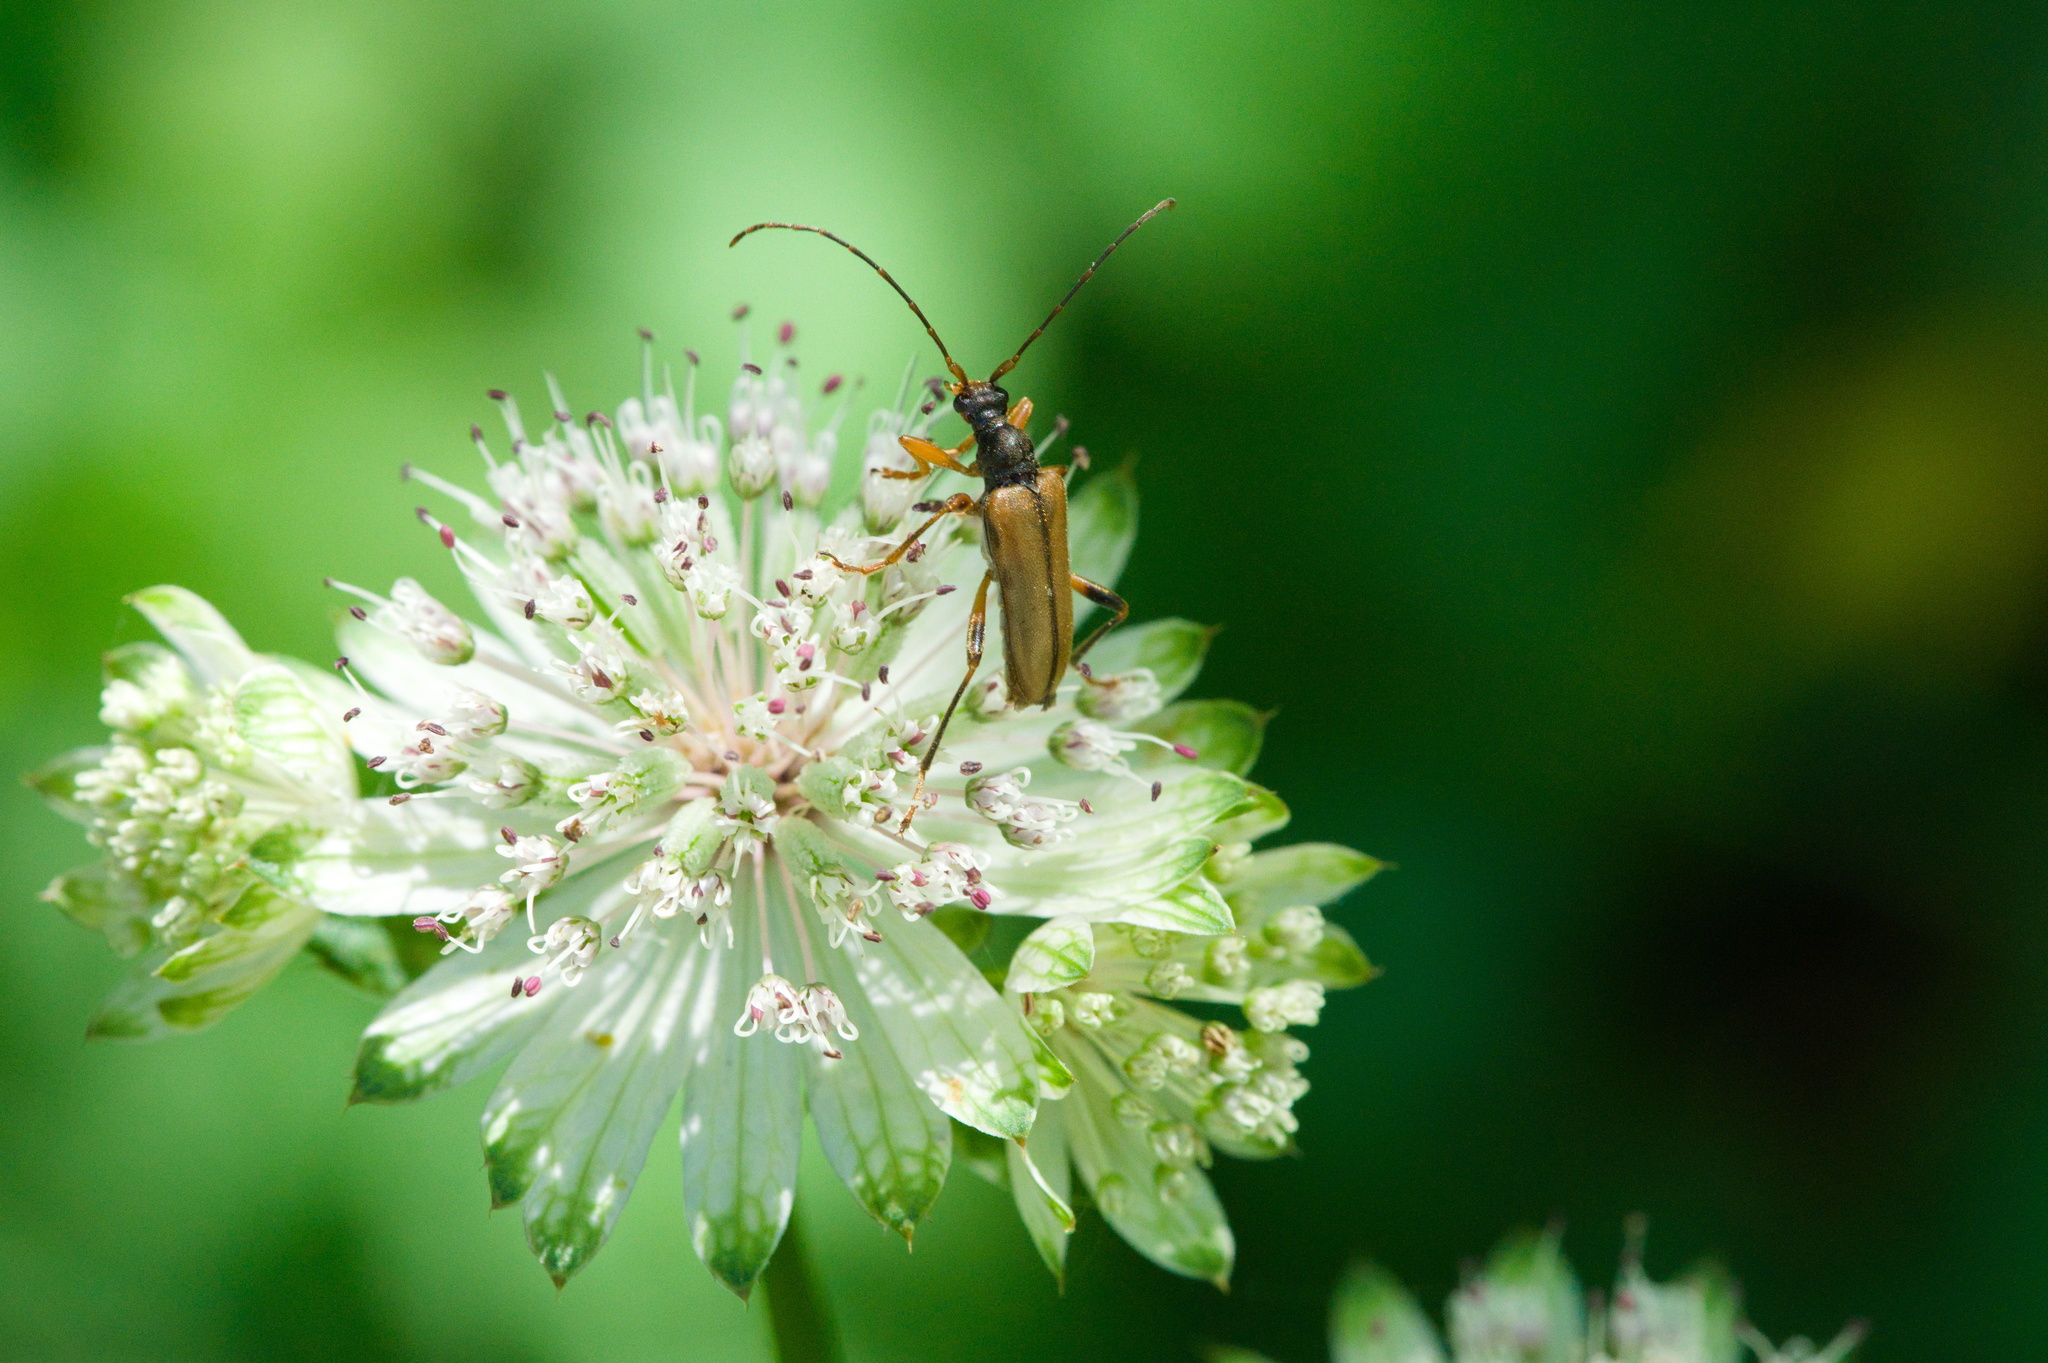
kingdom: Animalia
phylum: Arthropoda
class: Insecta
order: Coleoptera
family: Cerambycidae
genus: Pidonia
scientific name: Pidonia lurida
